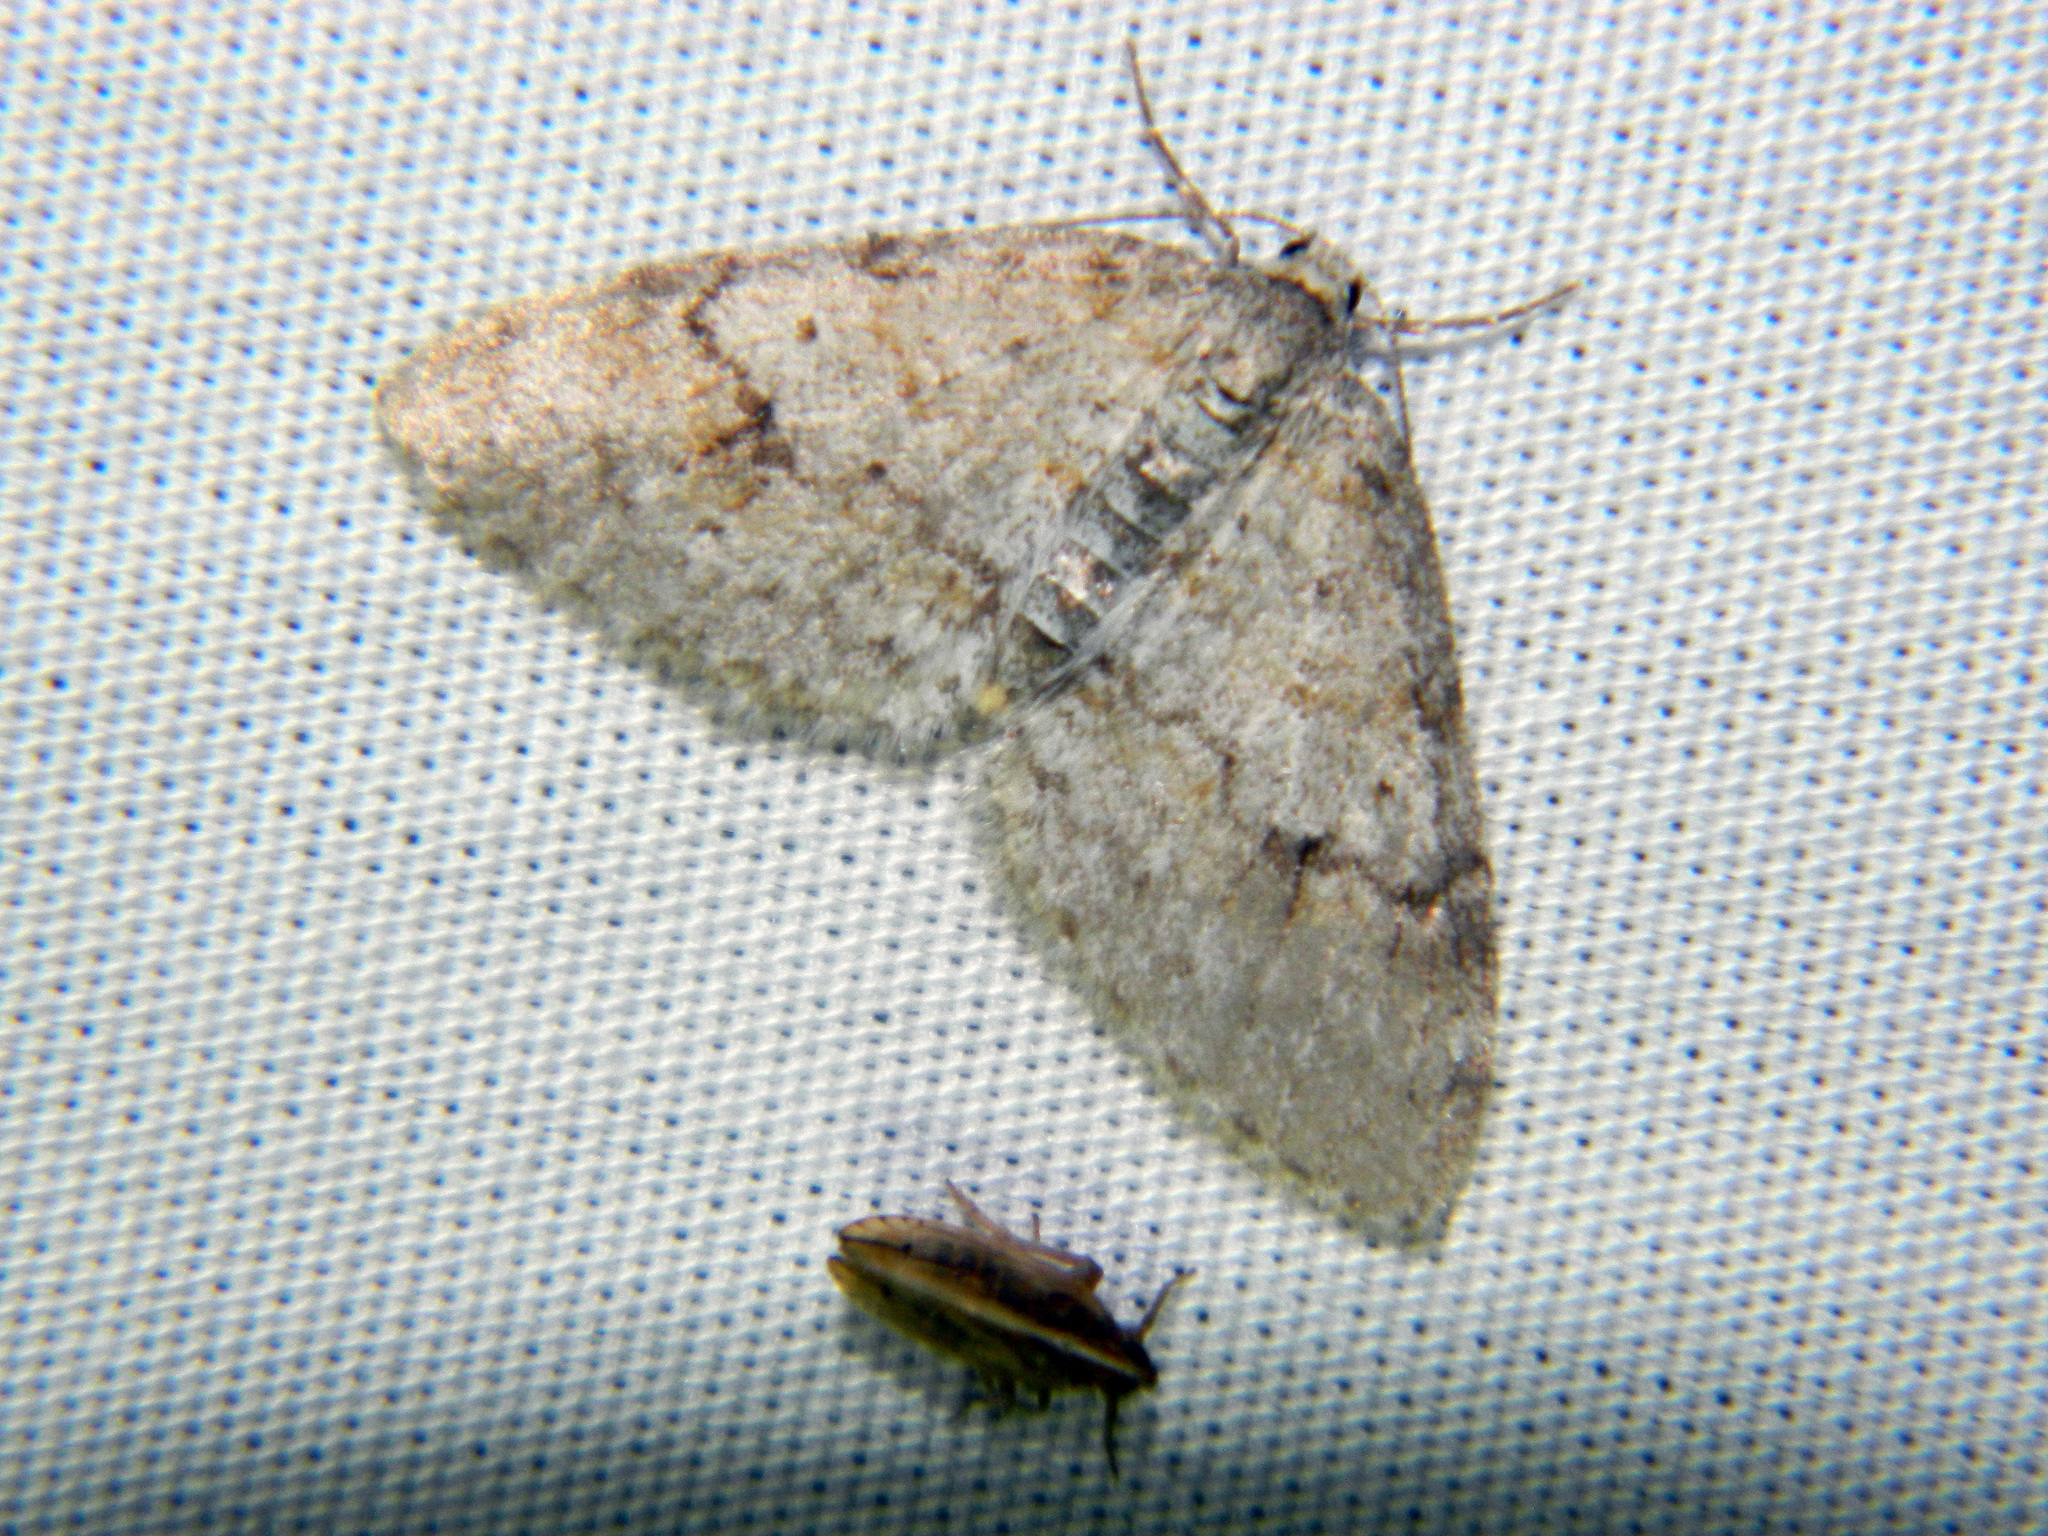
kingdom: Animalia
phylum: Arthropoda
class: Insecta
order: Lepidoptera
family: Geometridae
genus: Venusia
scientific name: Venusia comptaria
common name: Brown-shaded carpet
